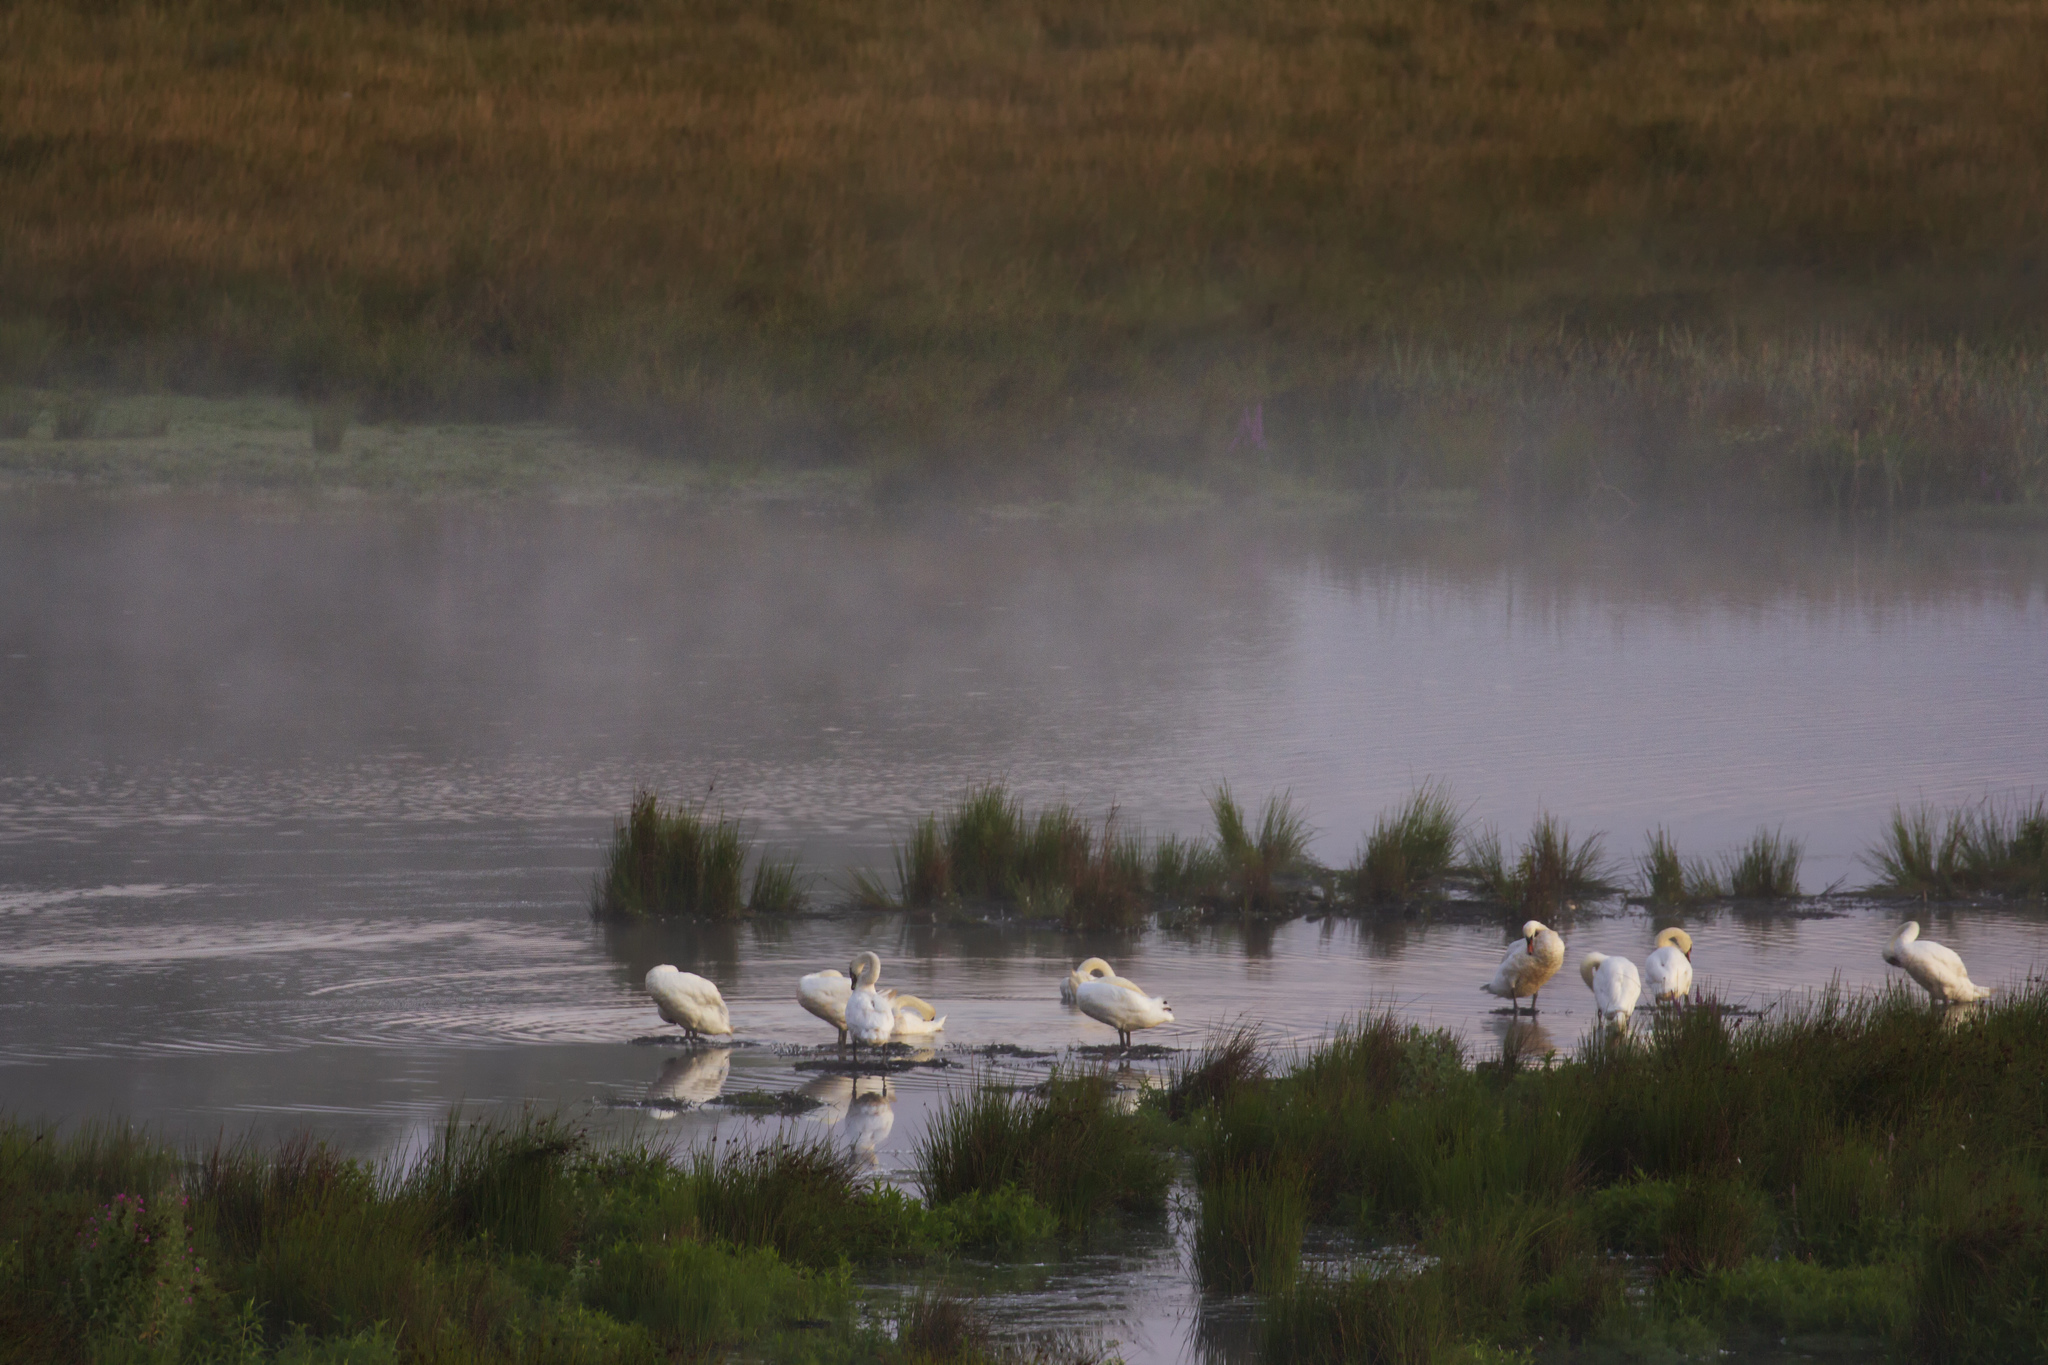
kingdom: Animalia
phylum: Chordata
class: Aves
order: Anseriformes
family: Anatidae
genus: Cygnus
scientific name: Cygnus olor
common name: Mute swan
